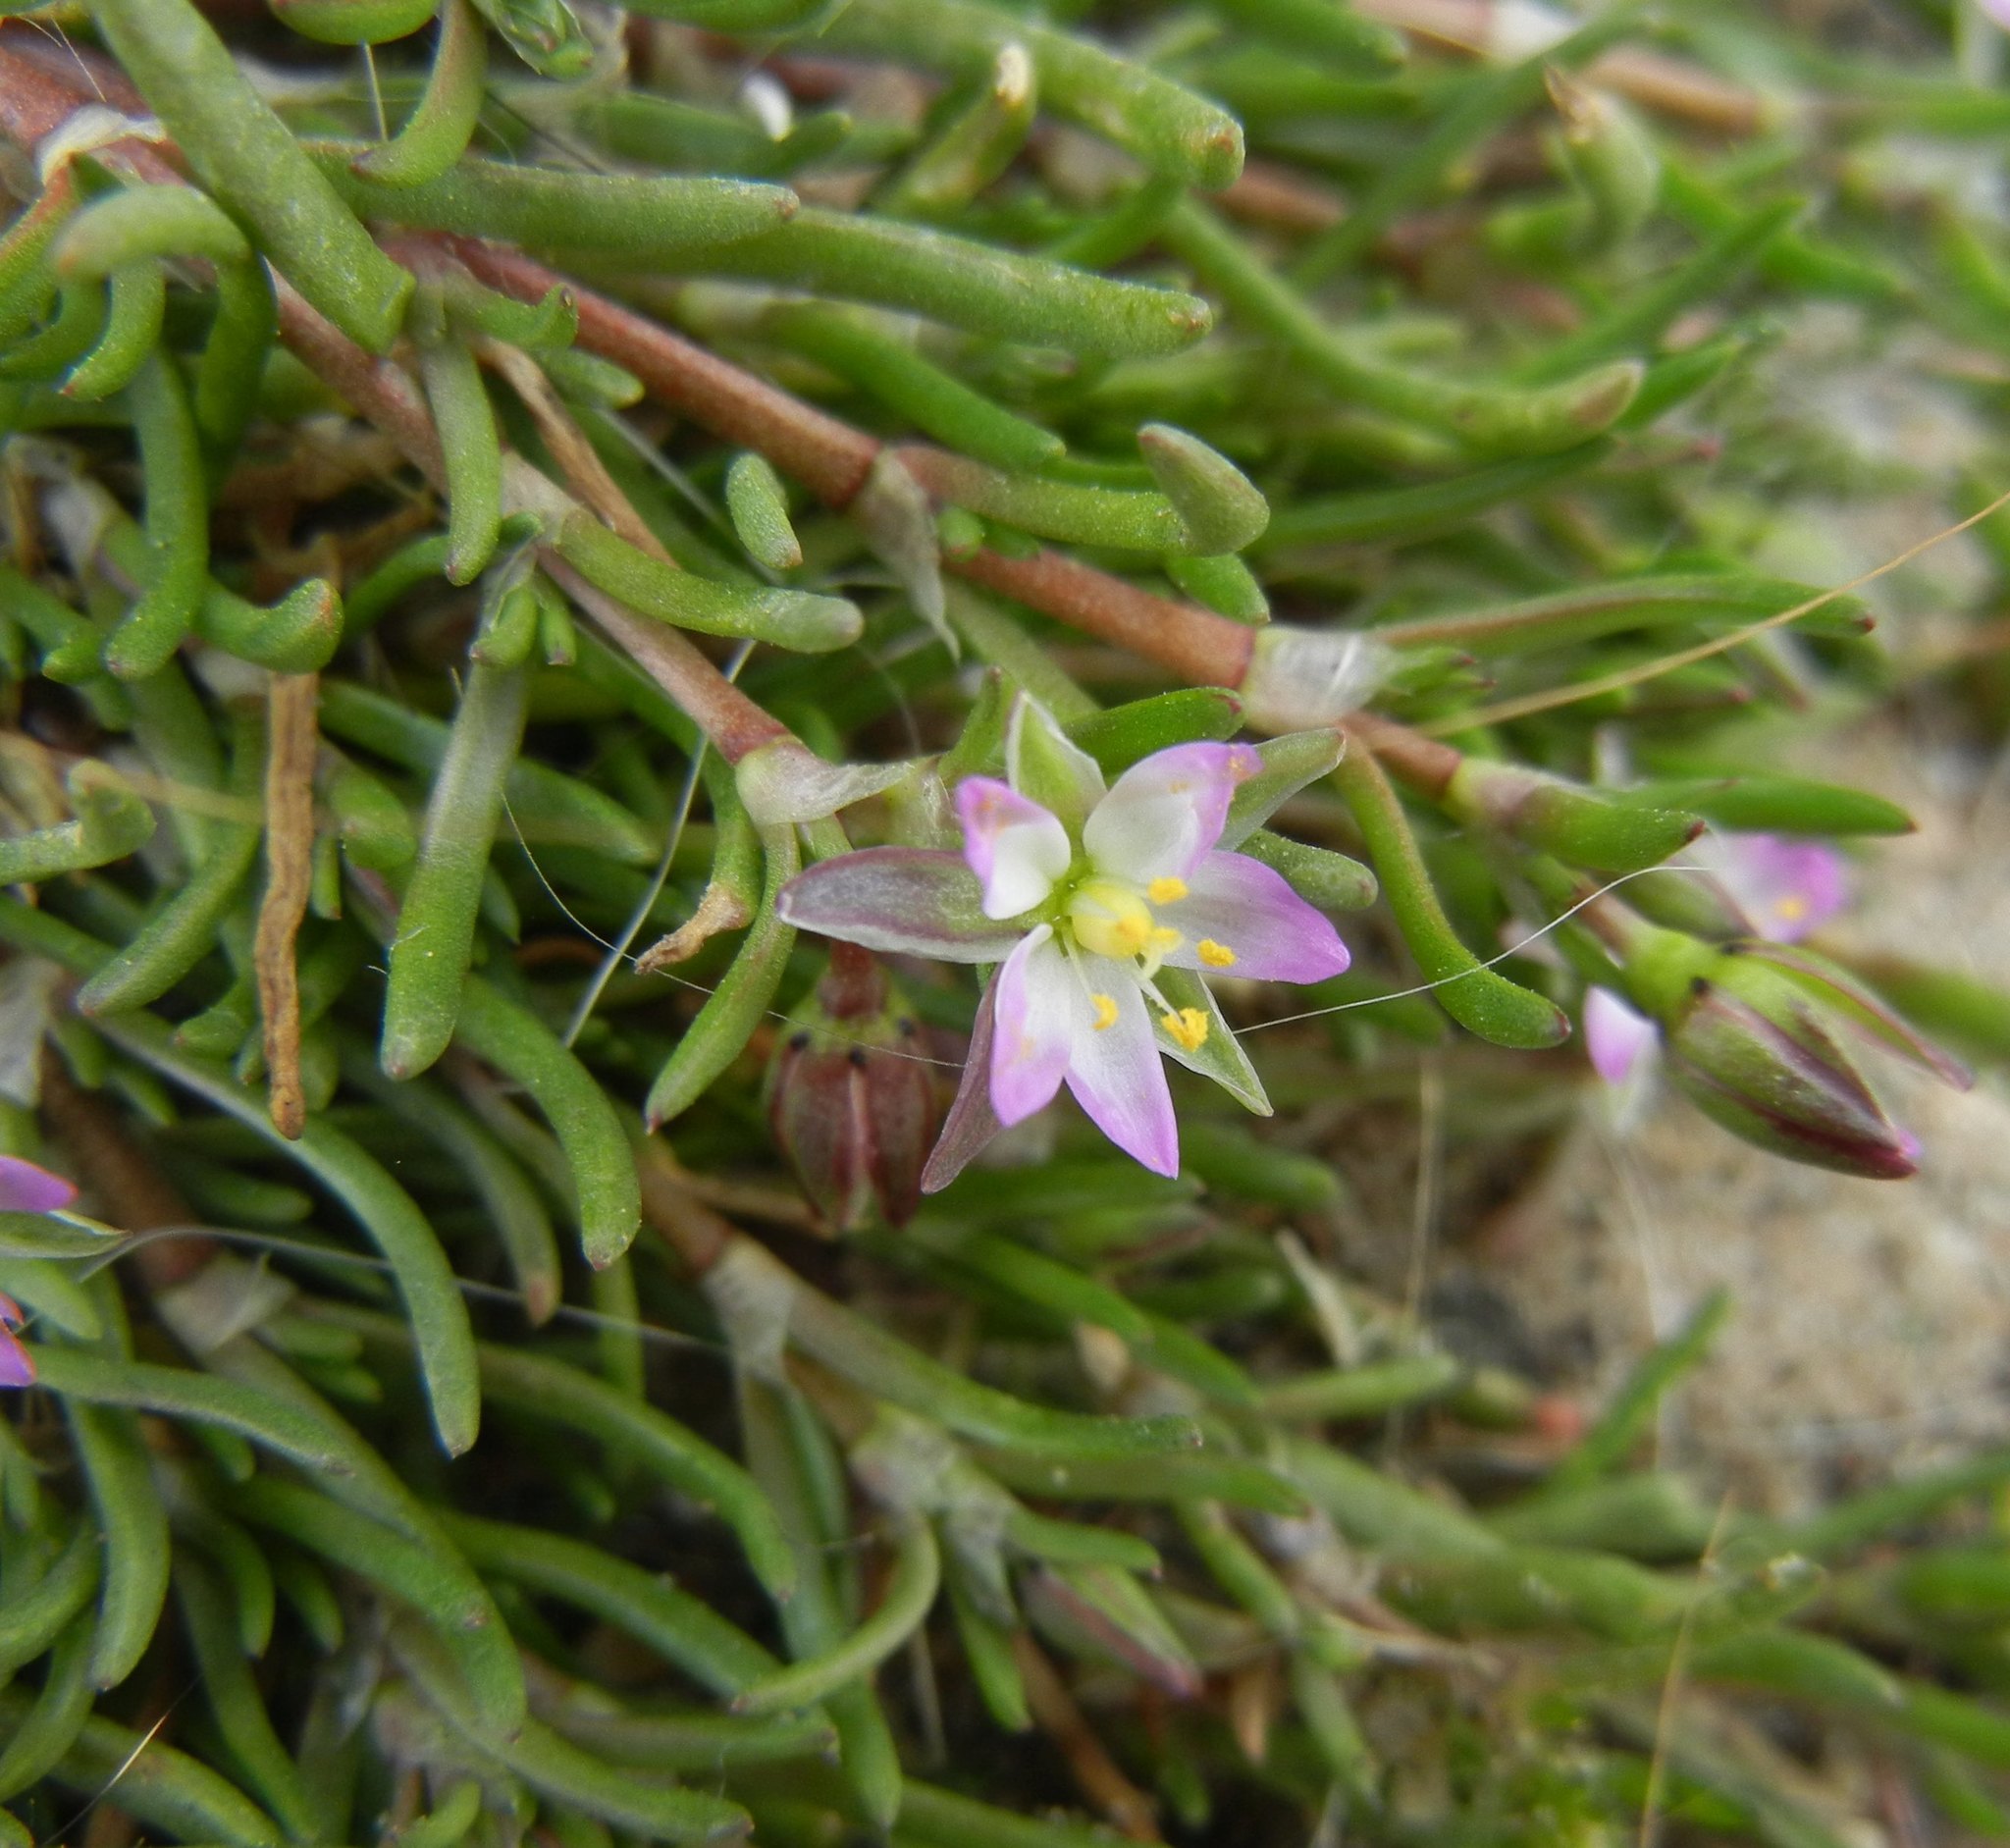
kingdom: Plantae
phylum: Tracheophyta
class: Magnoliopsida
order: Caryophyllales
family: Caryophyllaceae
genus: Spergularia
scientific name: Spergularia marina
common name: Lesser sea-spurrey
